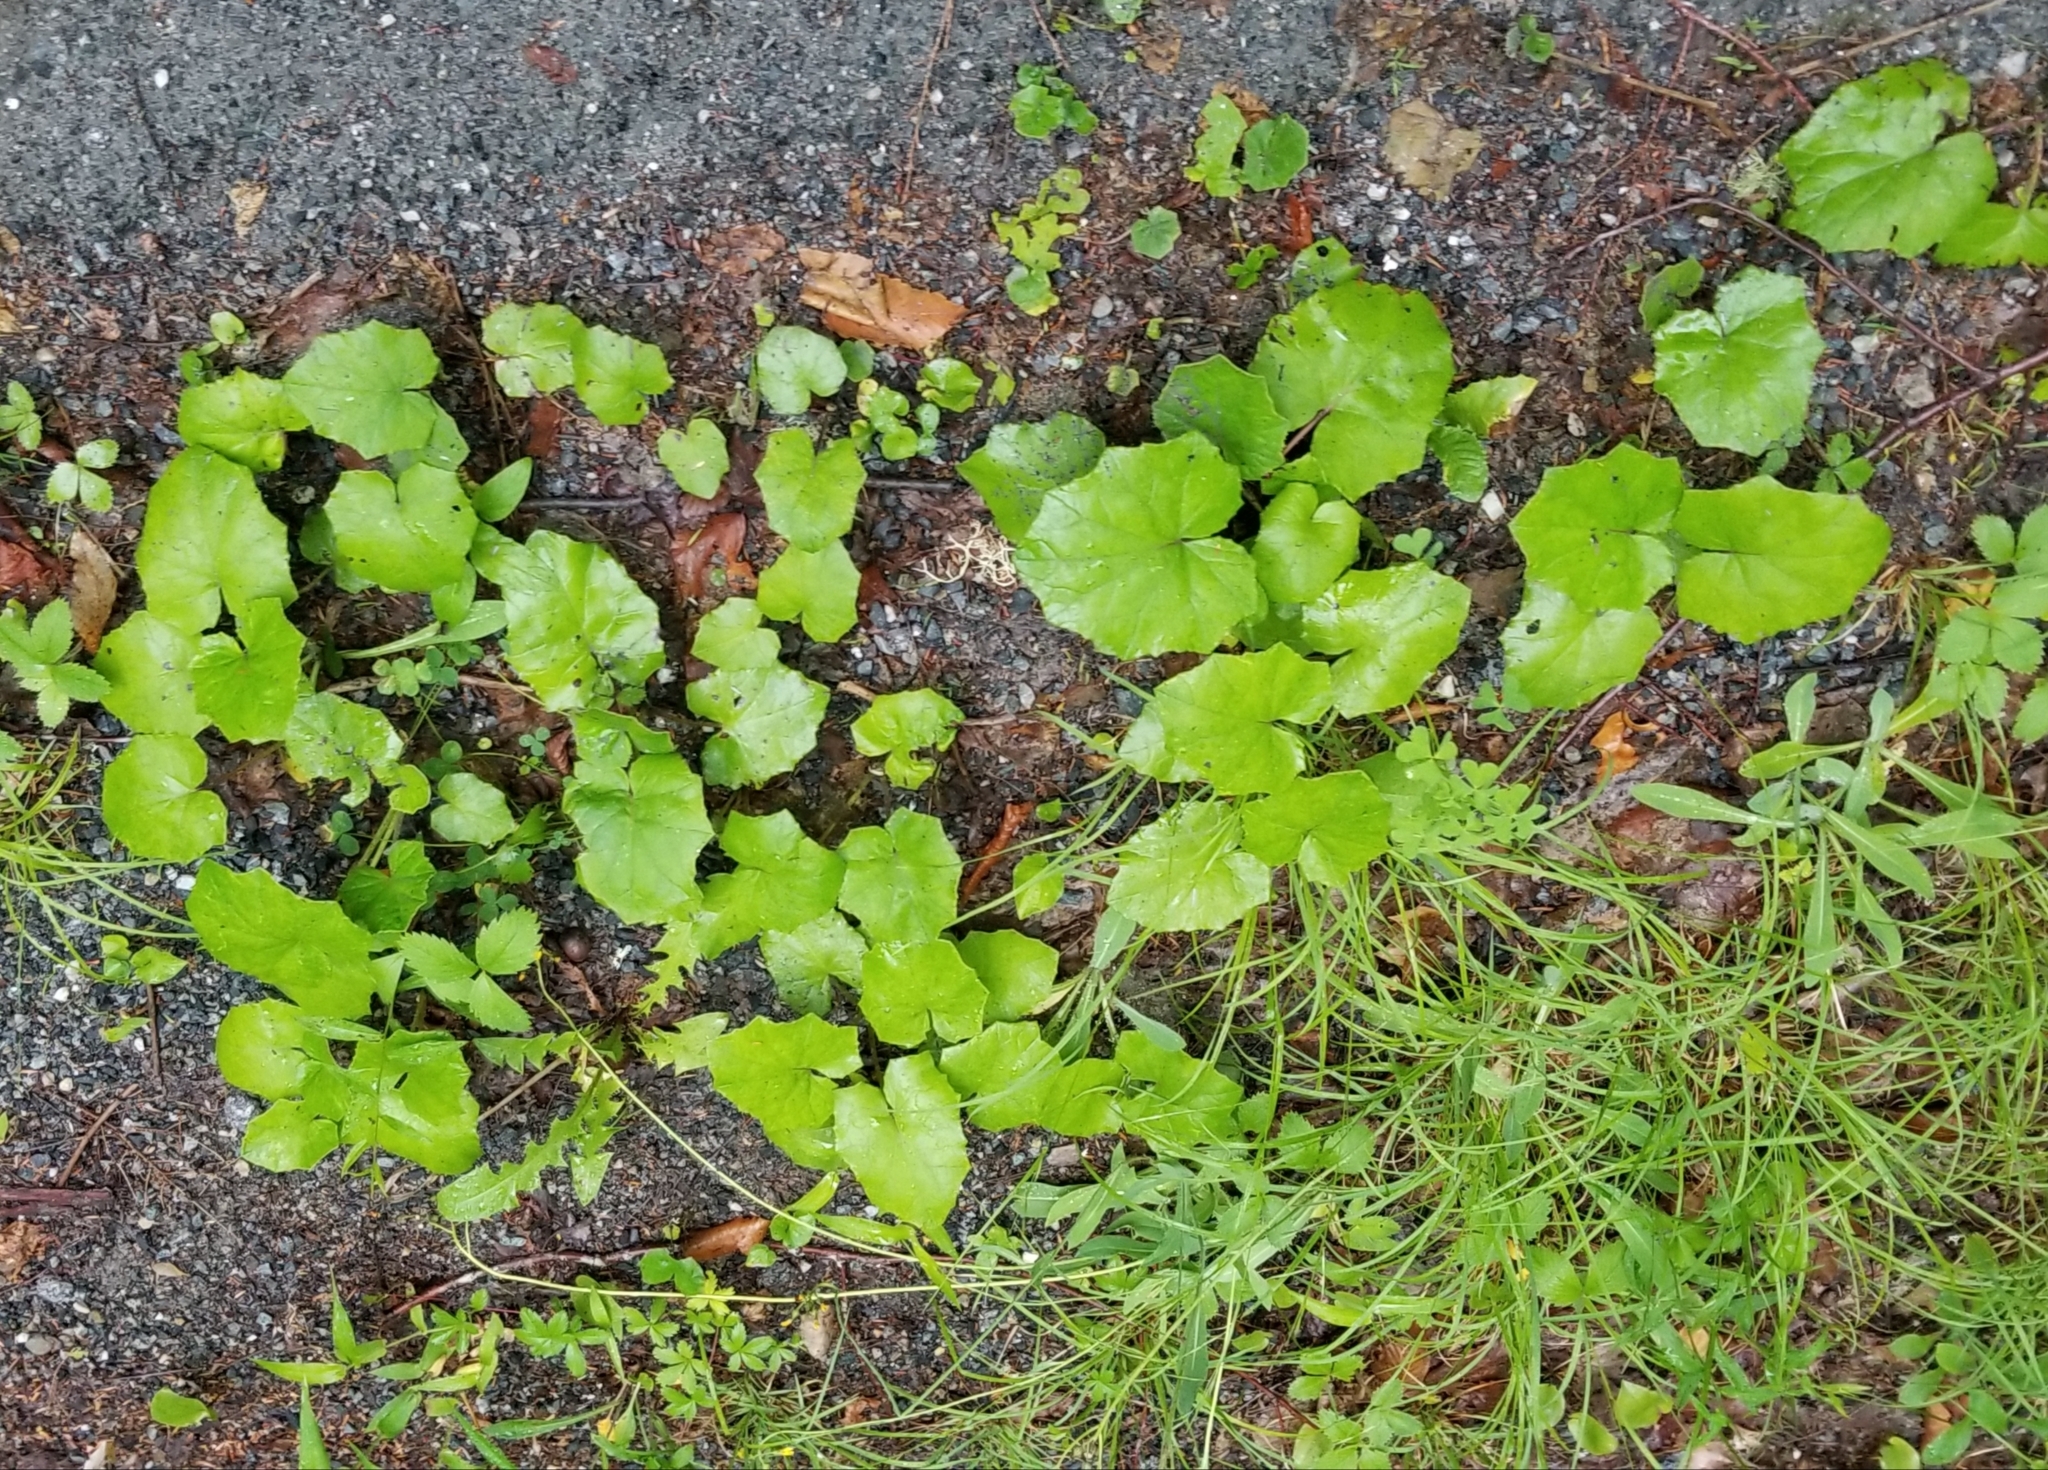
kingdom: Plantae
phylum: Tracheophyta
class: Magnoliopsida
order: Asterales
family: Asteraceae
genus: Tussilago
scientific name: Tussilago farfara
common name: Coltsfoot
